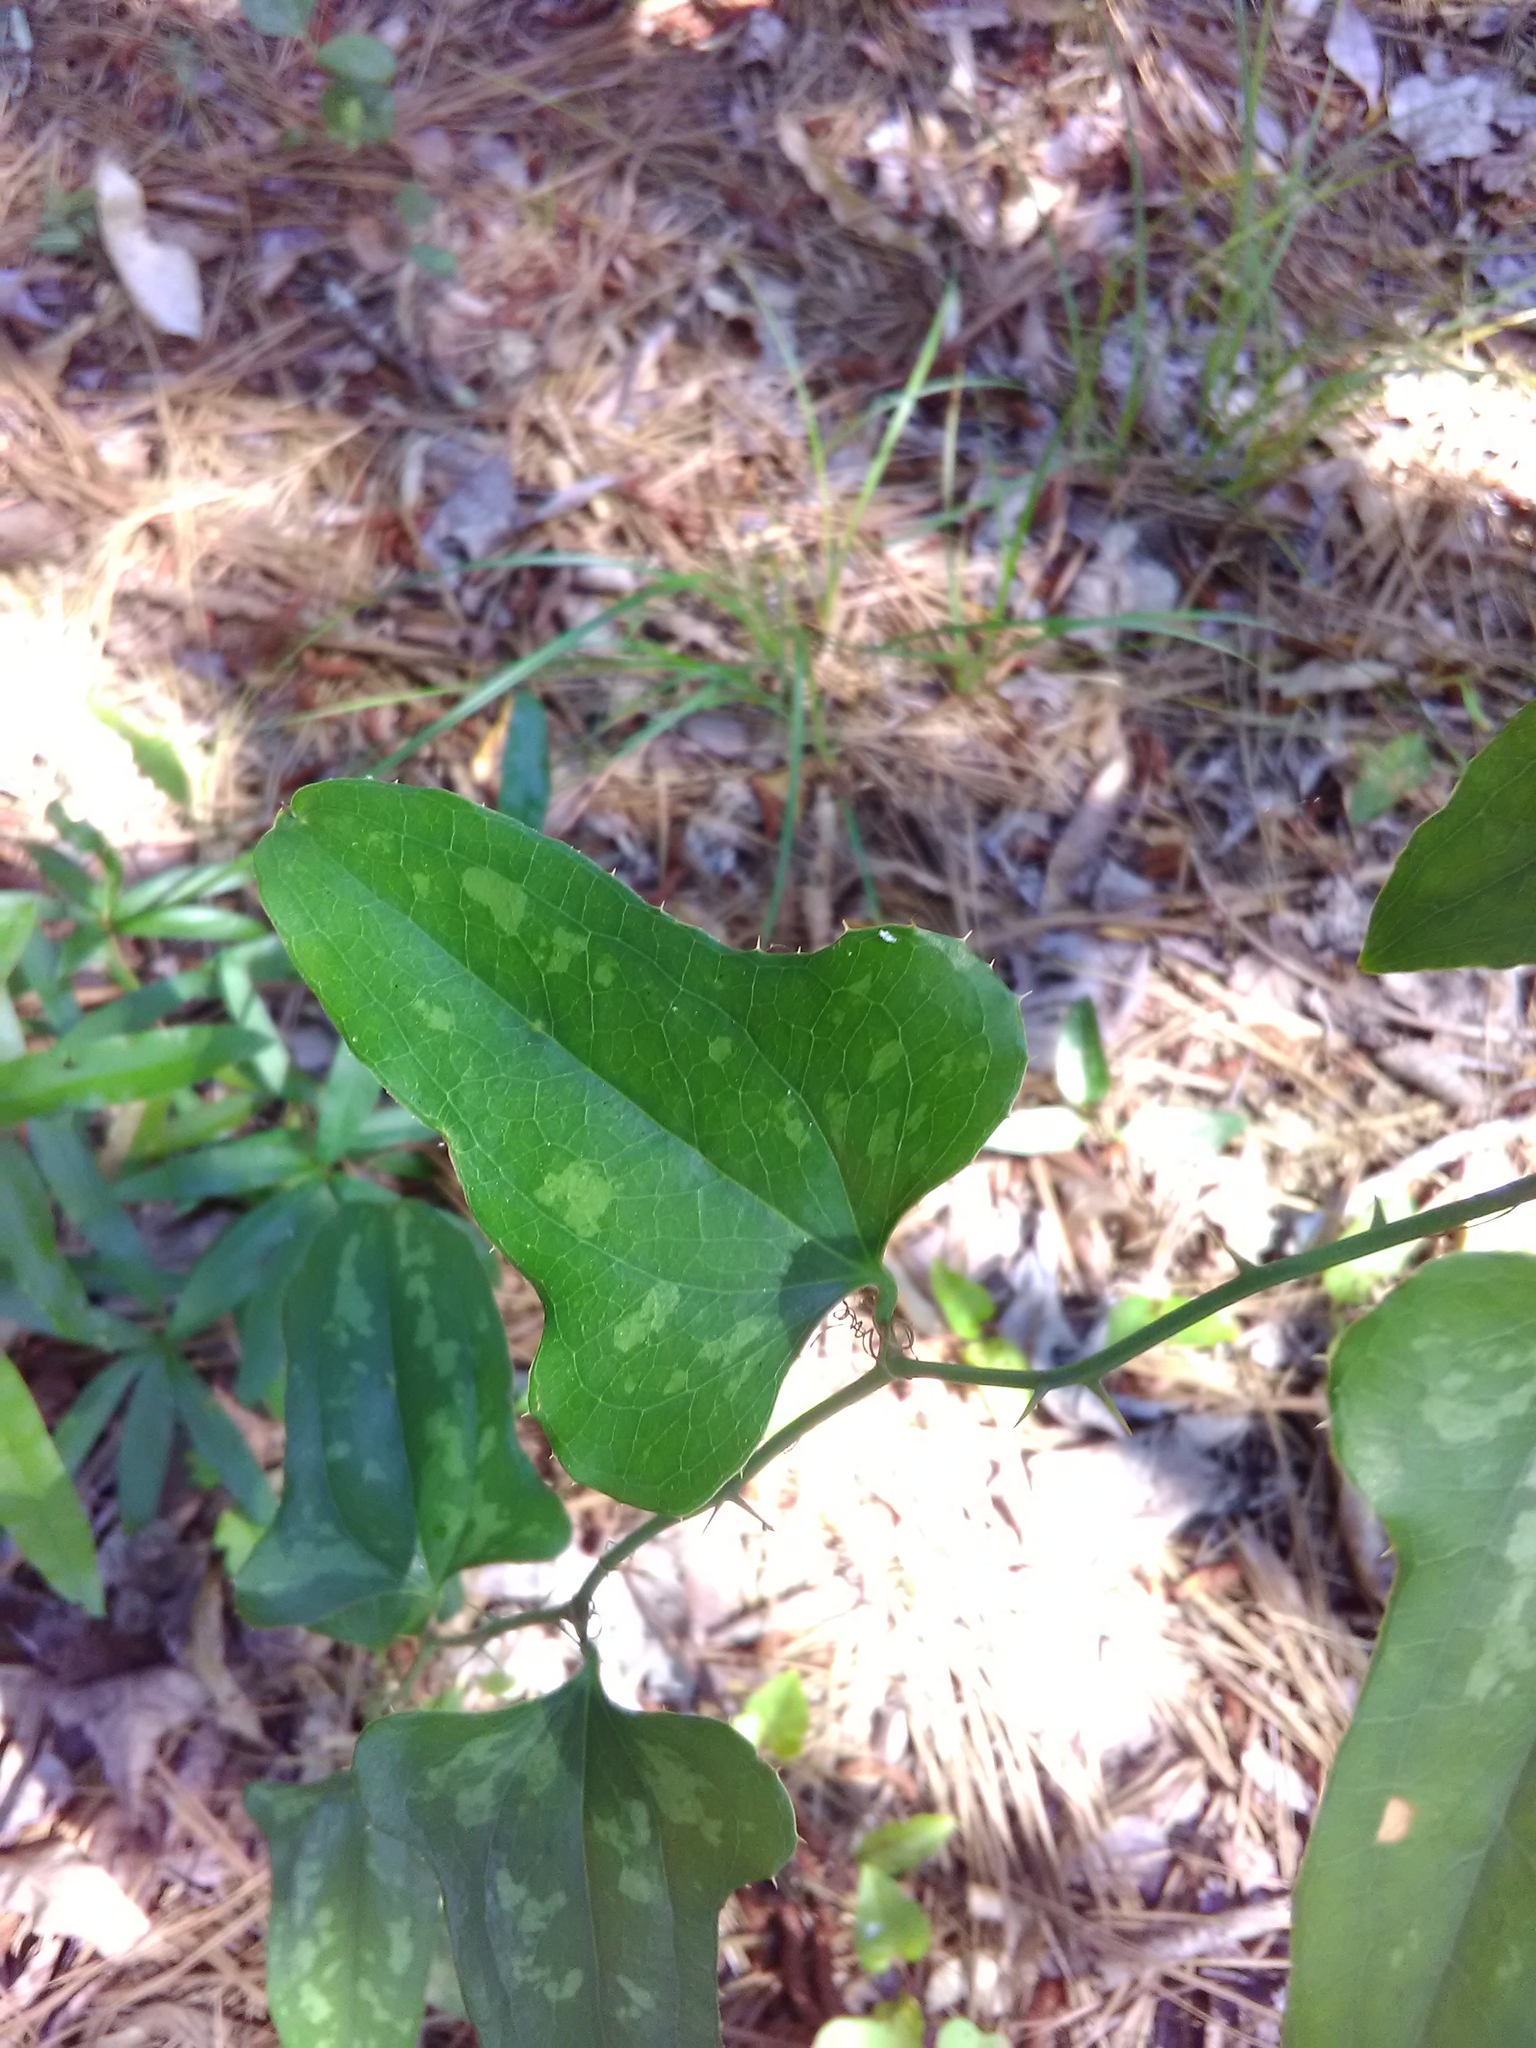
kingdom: Plantae
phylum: Tracheophyta
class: Liliopsida
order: Liliales
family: Smilacaceae
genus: Smilax
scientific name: Smilax bona-nox
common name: Catbrier
